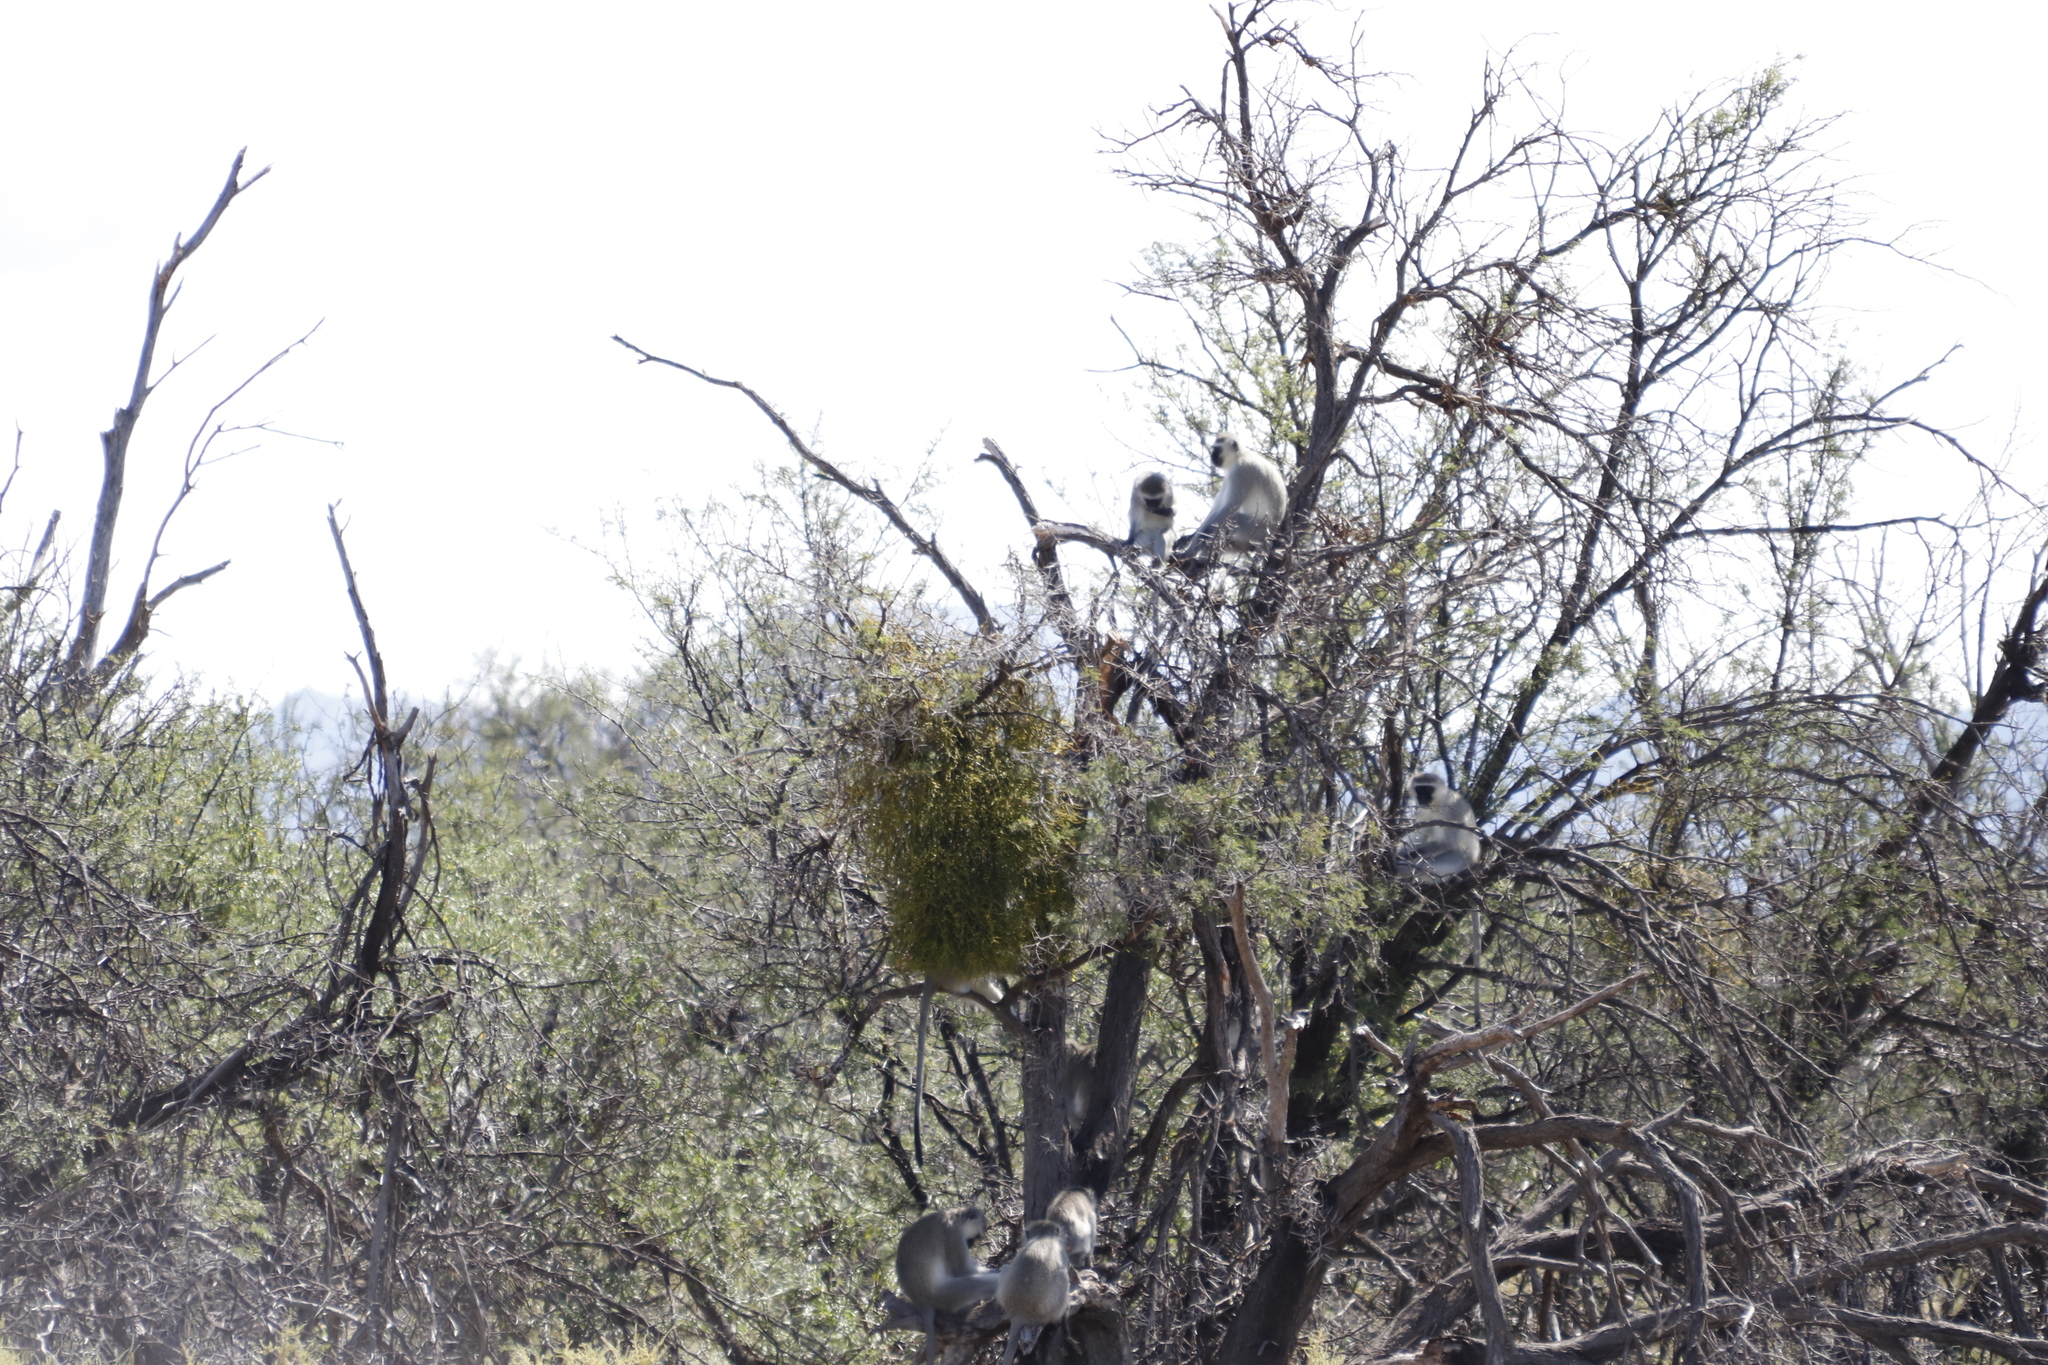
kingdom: Animalia
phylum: Chordata
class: Mammalia
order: Primates
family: Cercopithecidae
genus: Chlorocebus
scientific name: Chlorocebus pygerythrus
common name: Vervet monkey
